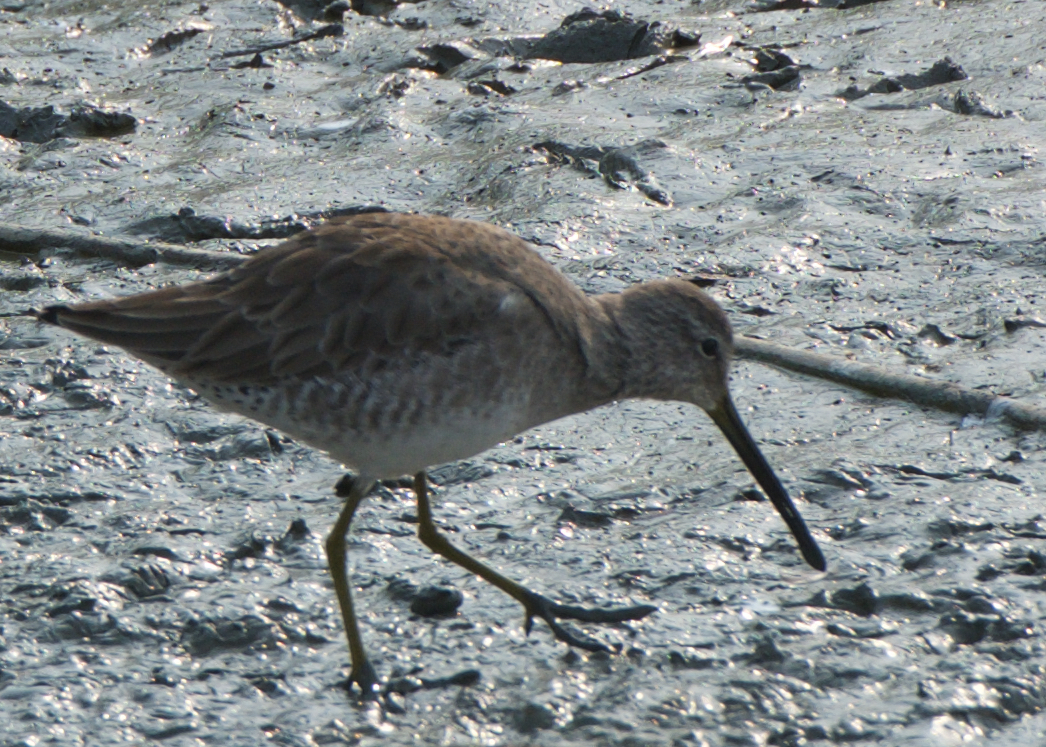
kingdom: Animalia
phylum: Chordata
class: Aves
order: Charadriiformes
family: Scolopacidae
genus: Limnodromus
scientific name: Limnodromus scolopaceus
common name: Long-billed dowitcher
